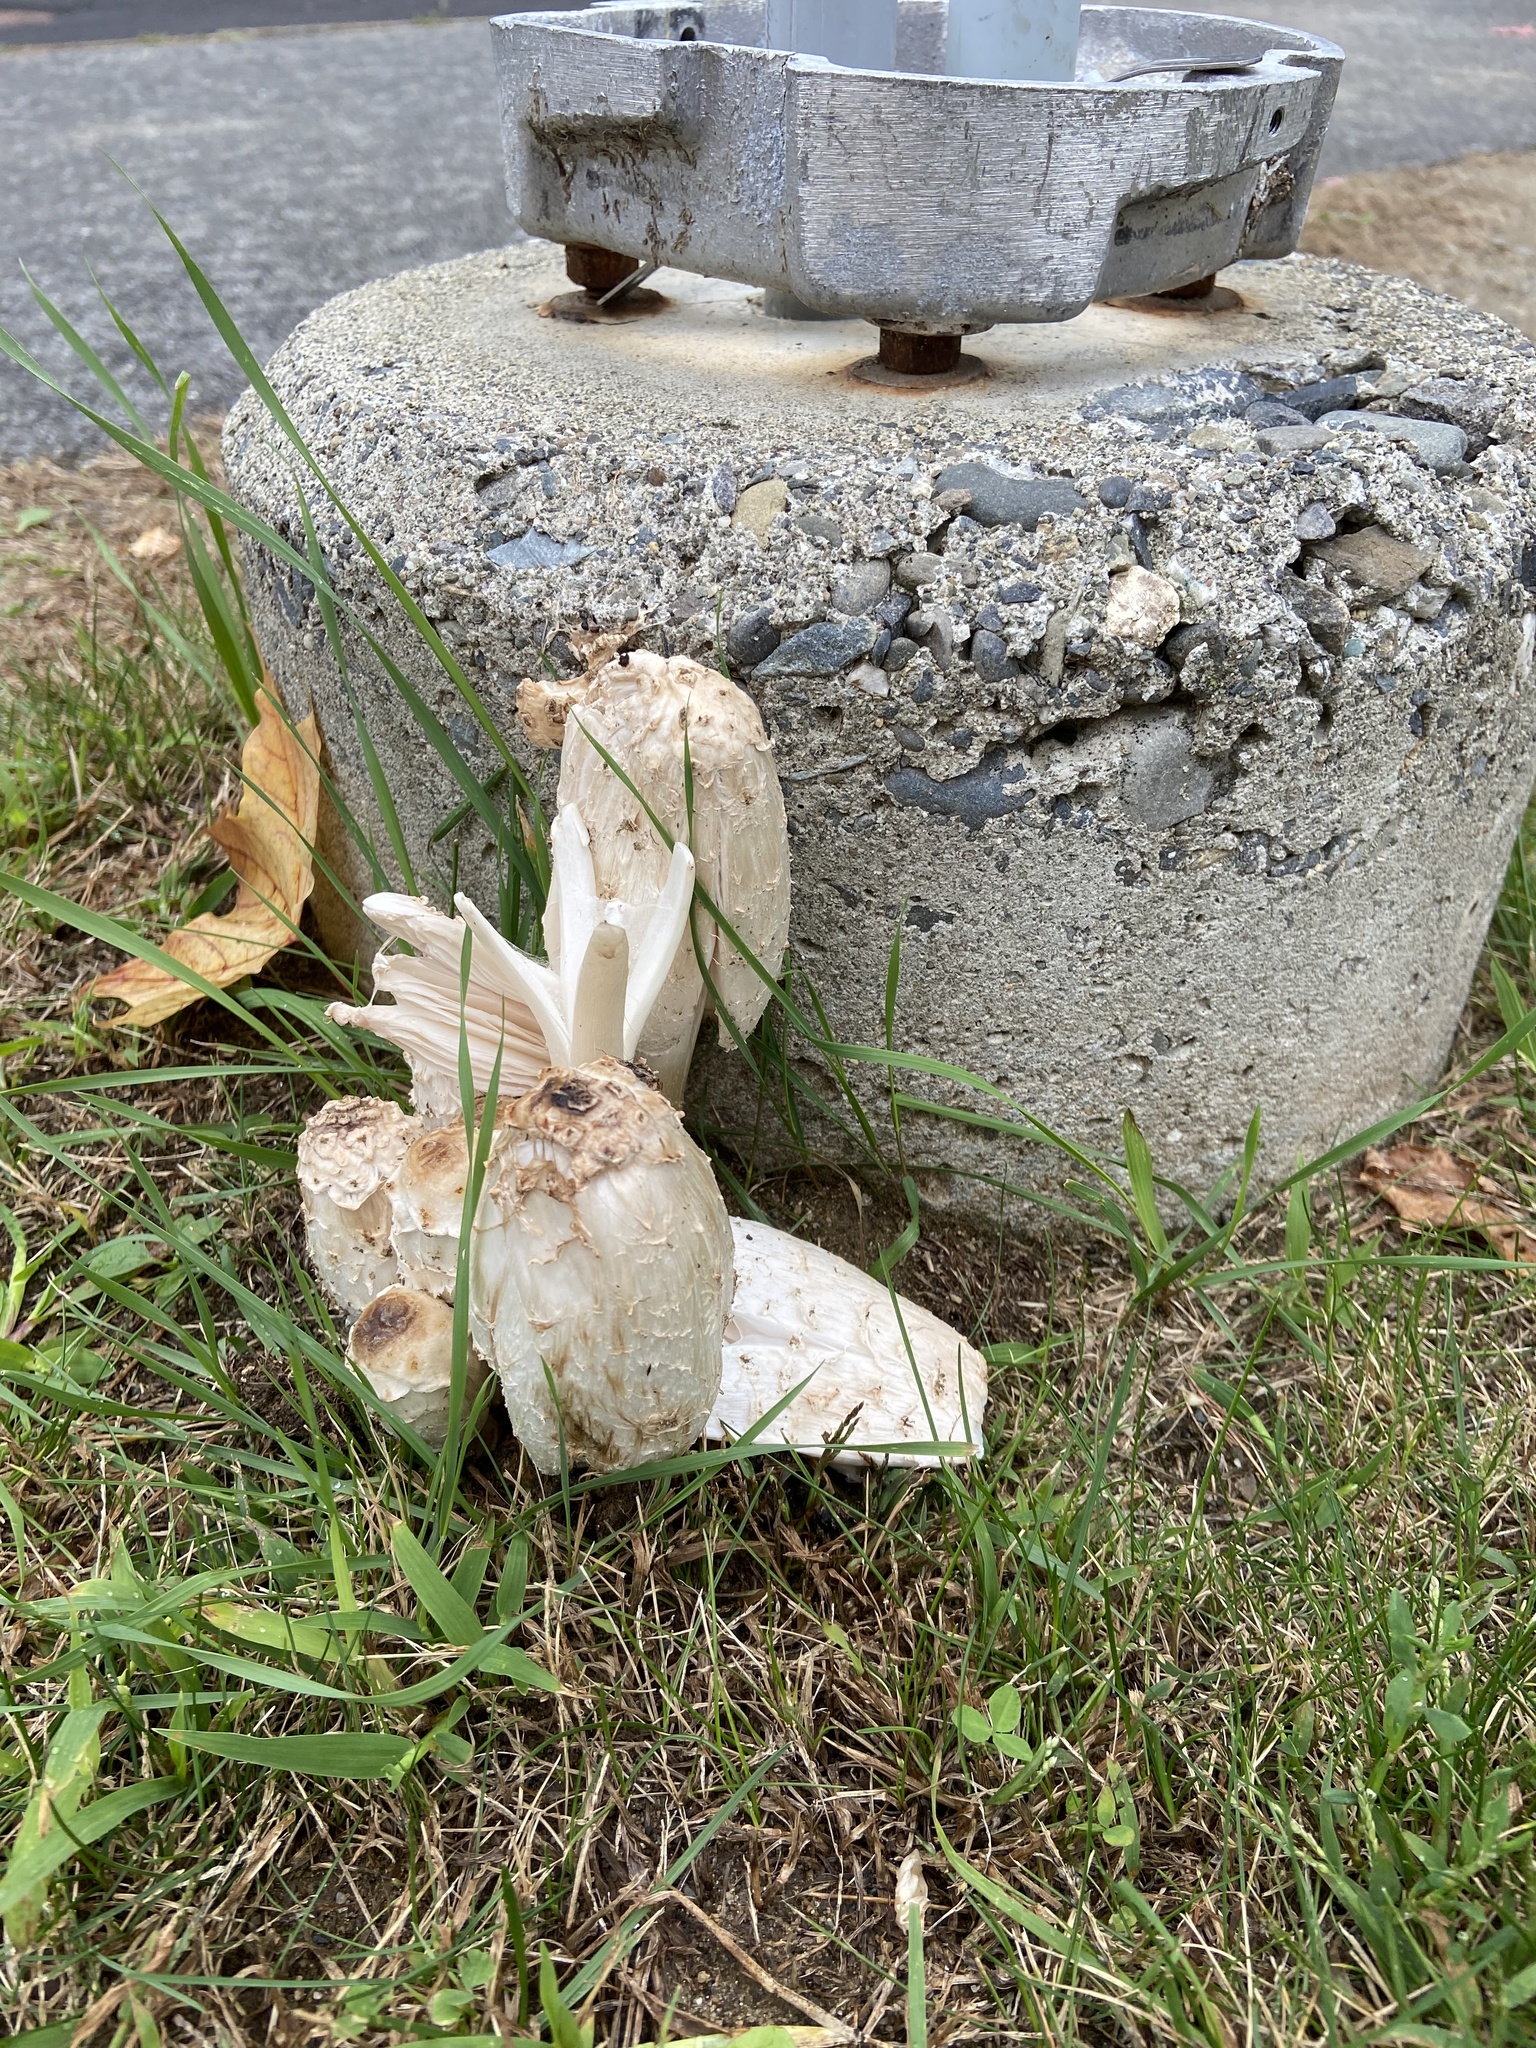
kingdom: Fungi
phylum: Basidiomycota
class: Agaricomycetes
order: Agaricales
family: Agaricaceae
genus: Coprinus
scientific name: Coprinus comatus
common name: Lawyer's wig
